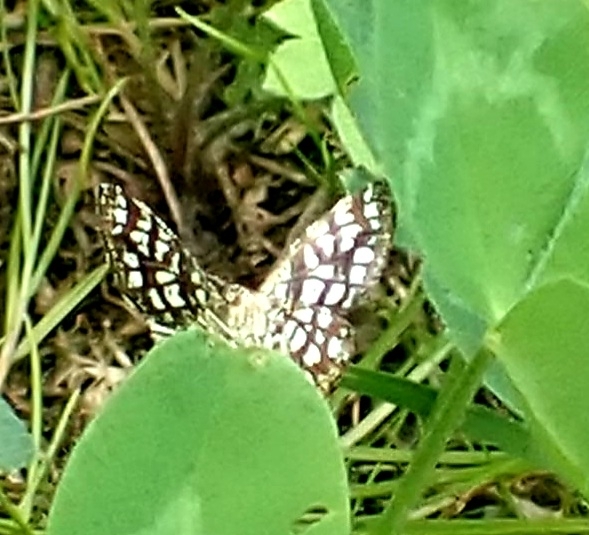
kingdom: Animalia
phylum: Arthropoda
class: Insecta
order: Lepidoptera
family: Geometridae
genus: Chiasmia
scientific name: Chiasmia clathrata
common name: Latticed heath
